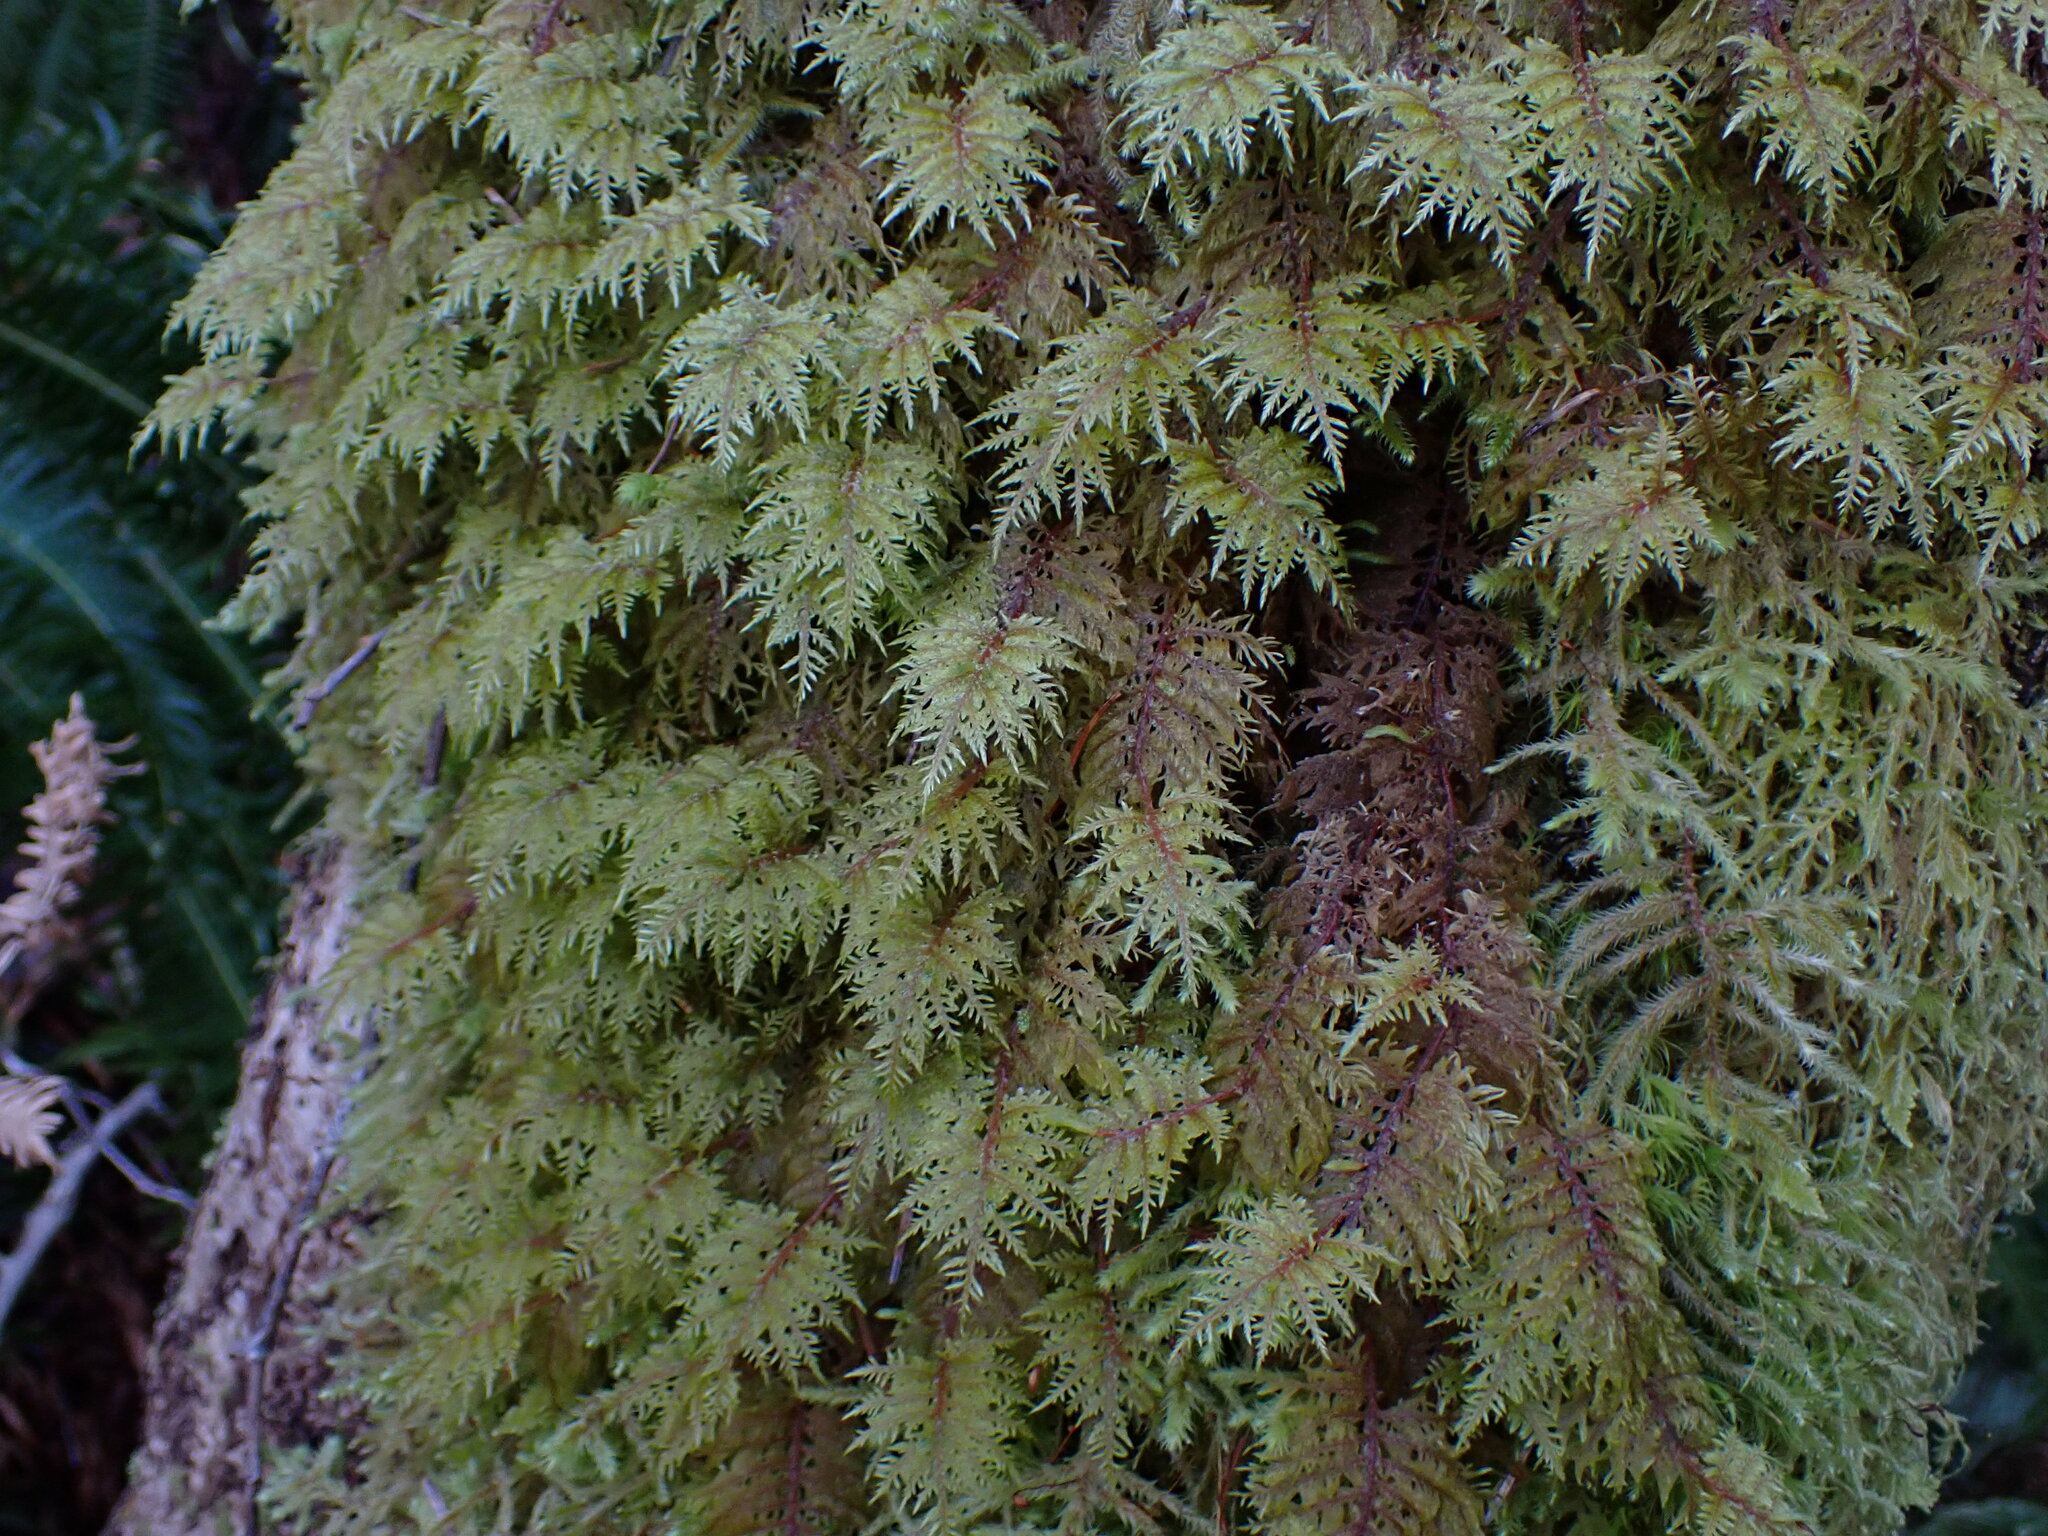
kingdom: Plantae
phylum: Bryophyta
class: Bryopsida
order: Hypnales
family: Hylocomiaceae
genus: Hylocomium
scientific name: Hylocomium splendens
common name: Stairstep moss
